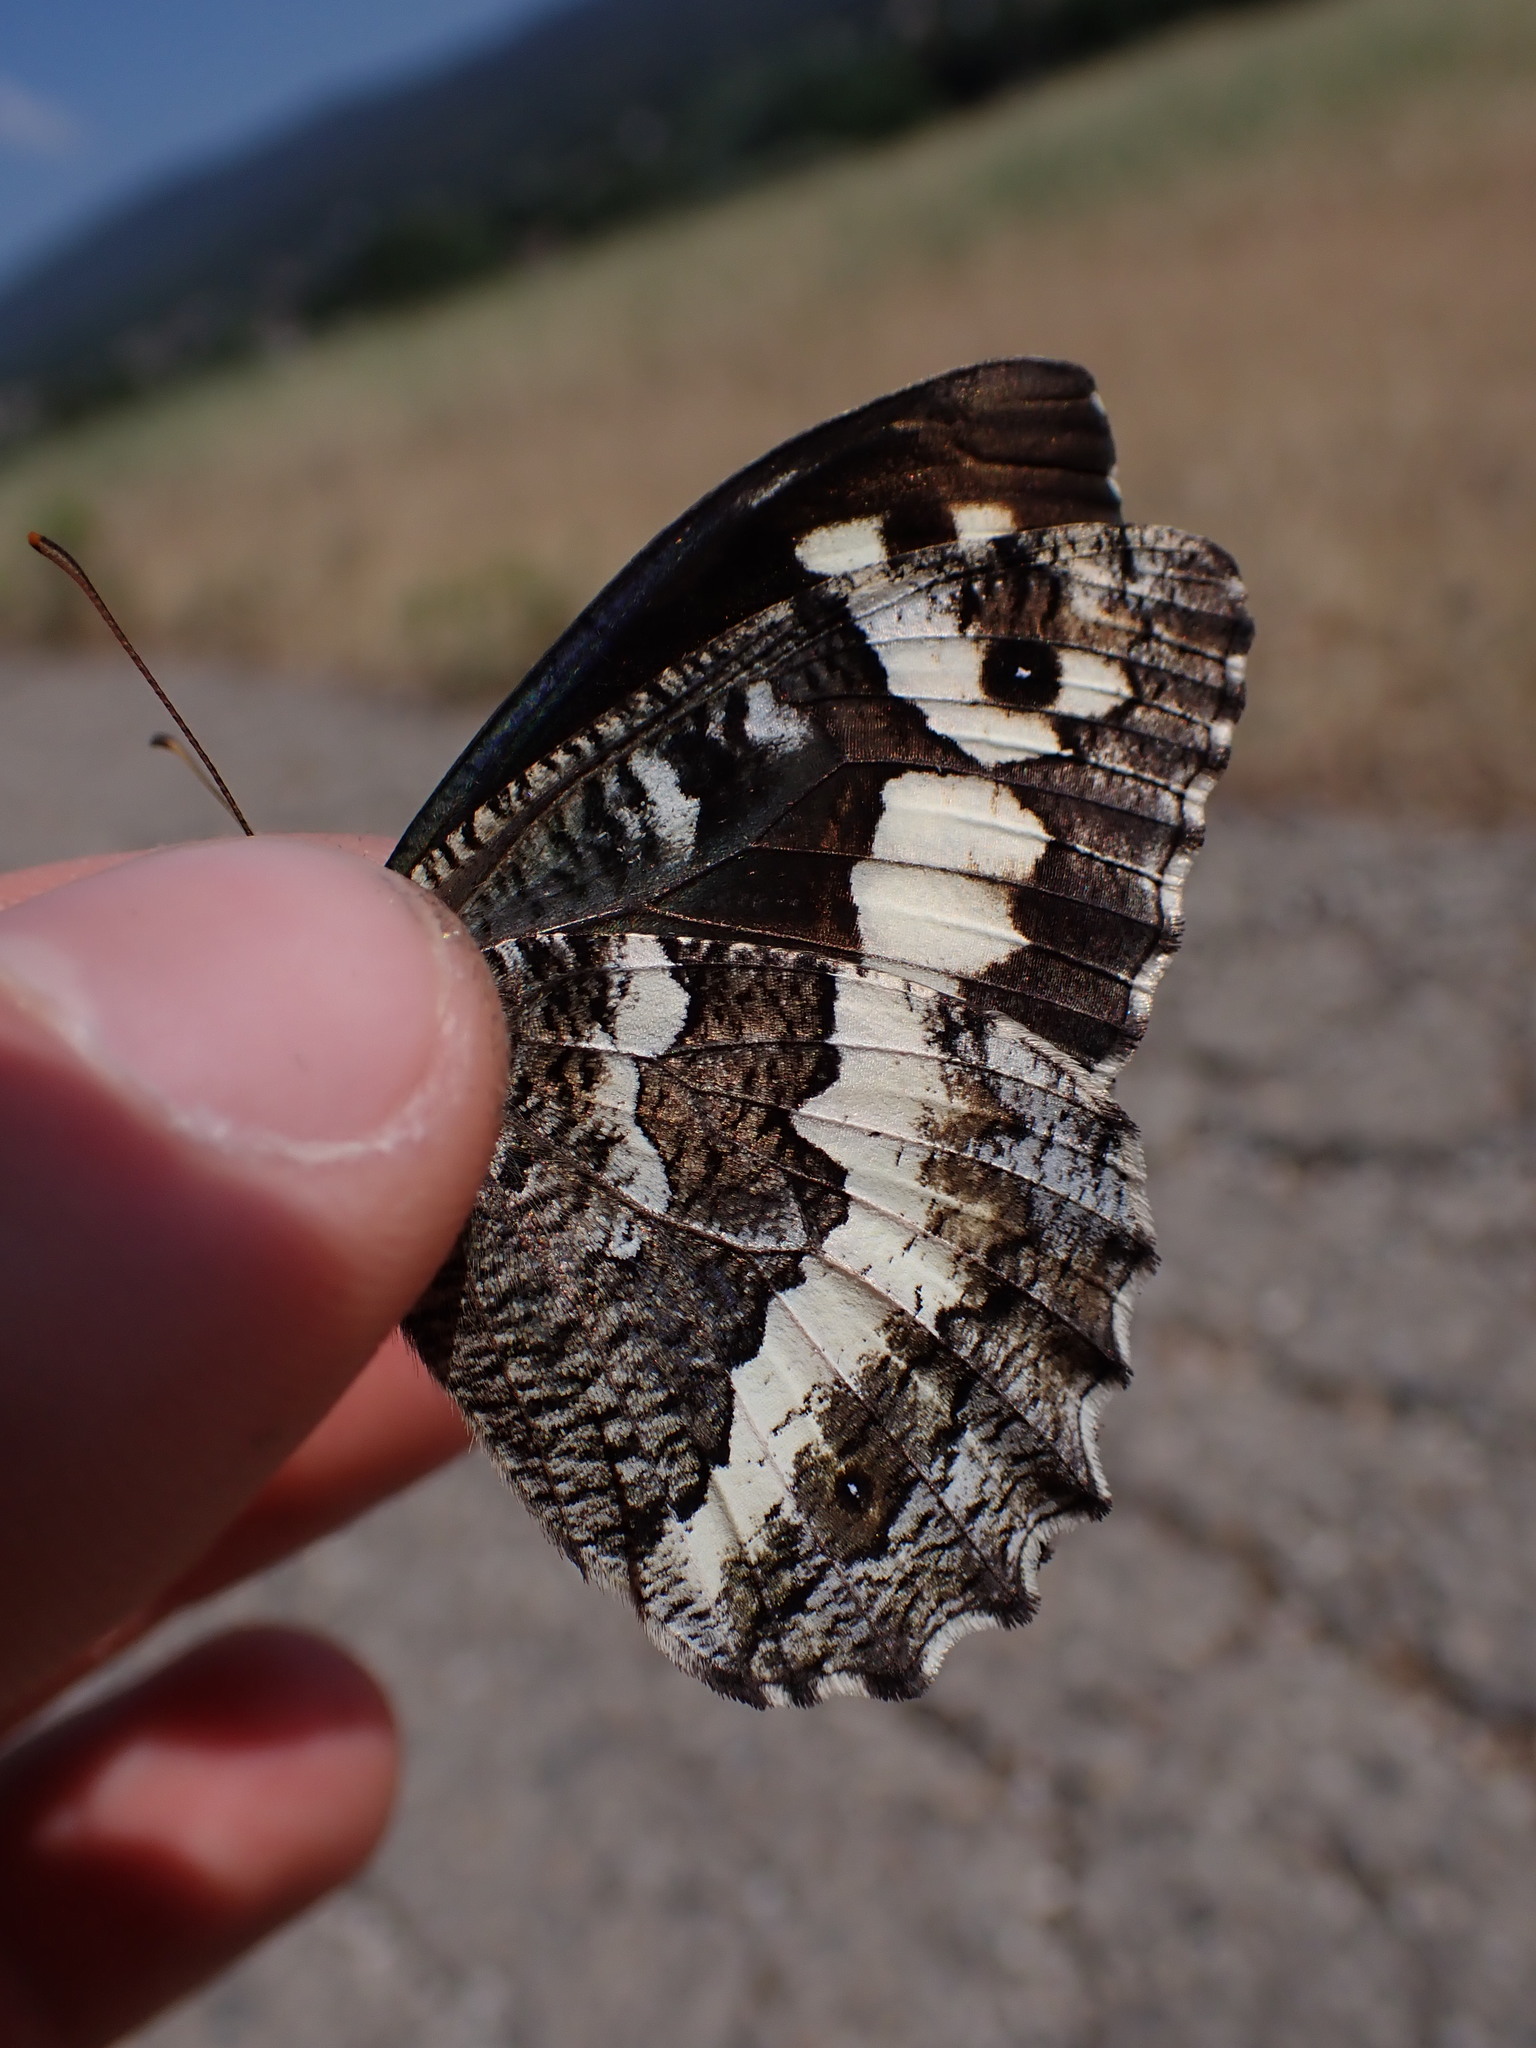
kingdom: Animalia
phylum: Arthropoda
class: Insecta
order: Lepidoptera
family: Lycaenidae
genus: Loweia
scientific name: Loweia tityrus
